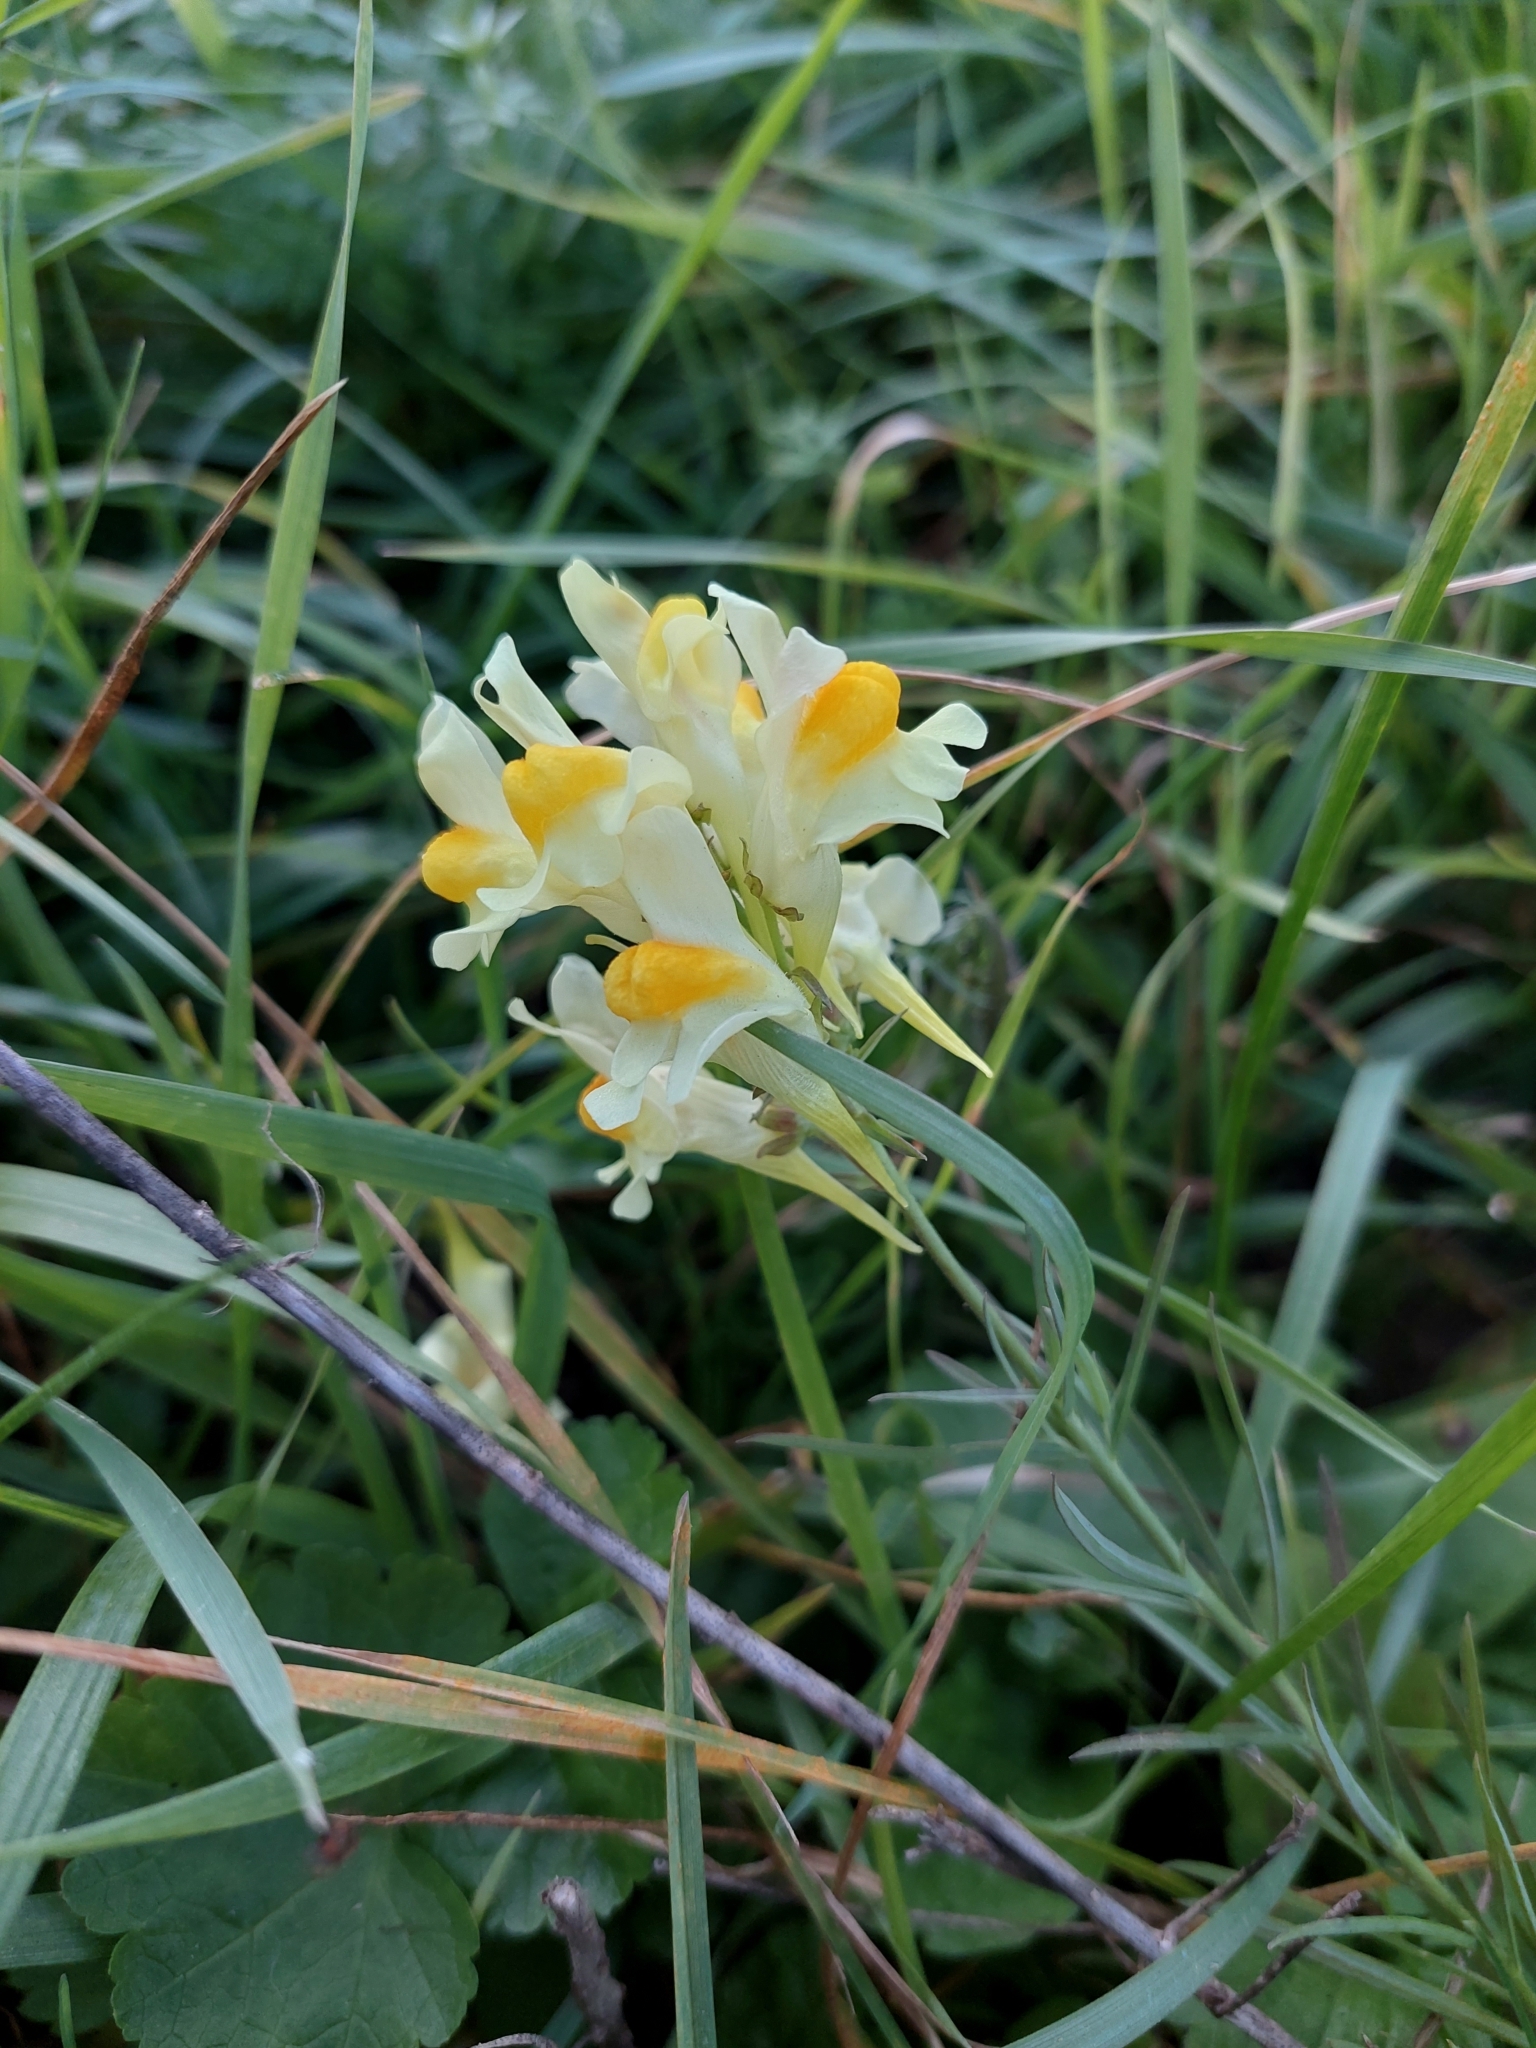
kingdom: Plantae
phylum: Tracheophyta
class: Magnoliopsida
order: Lamiales
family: Plantaginaceae
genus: Linaria
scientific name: Linaria vulgaris
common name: Butter and eggs
